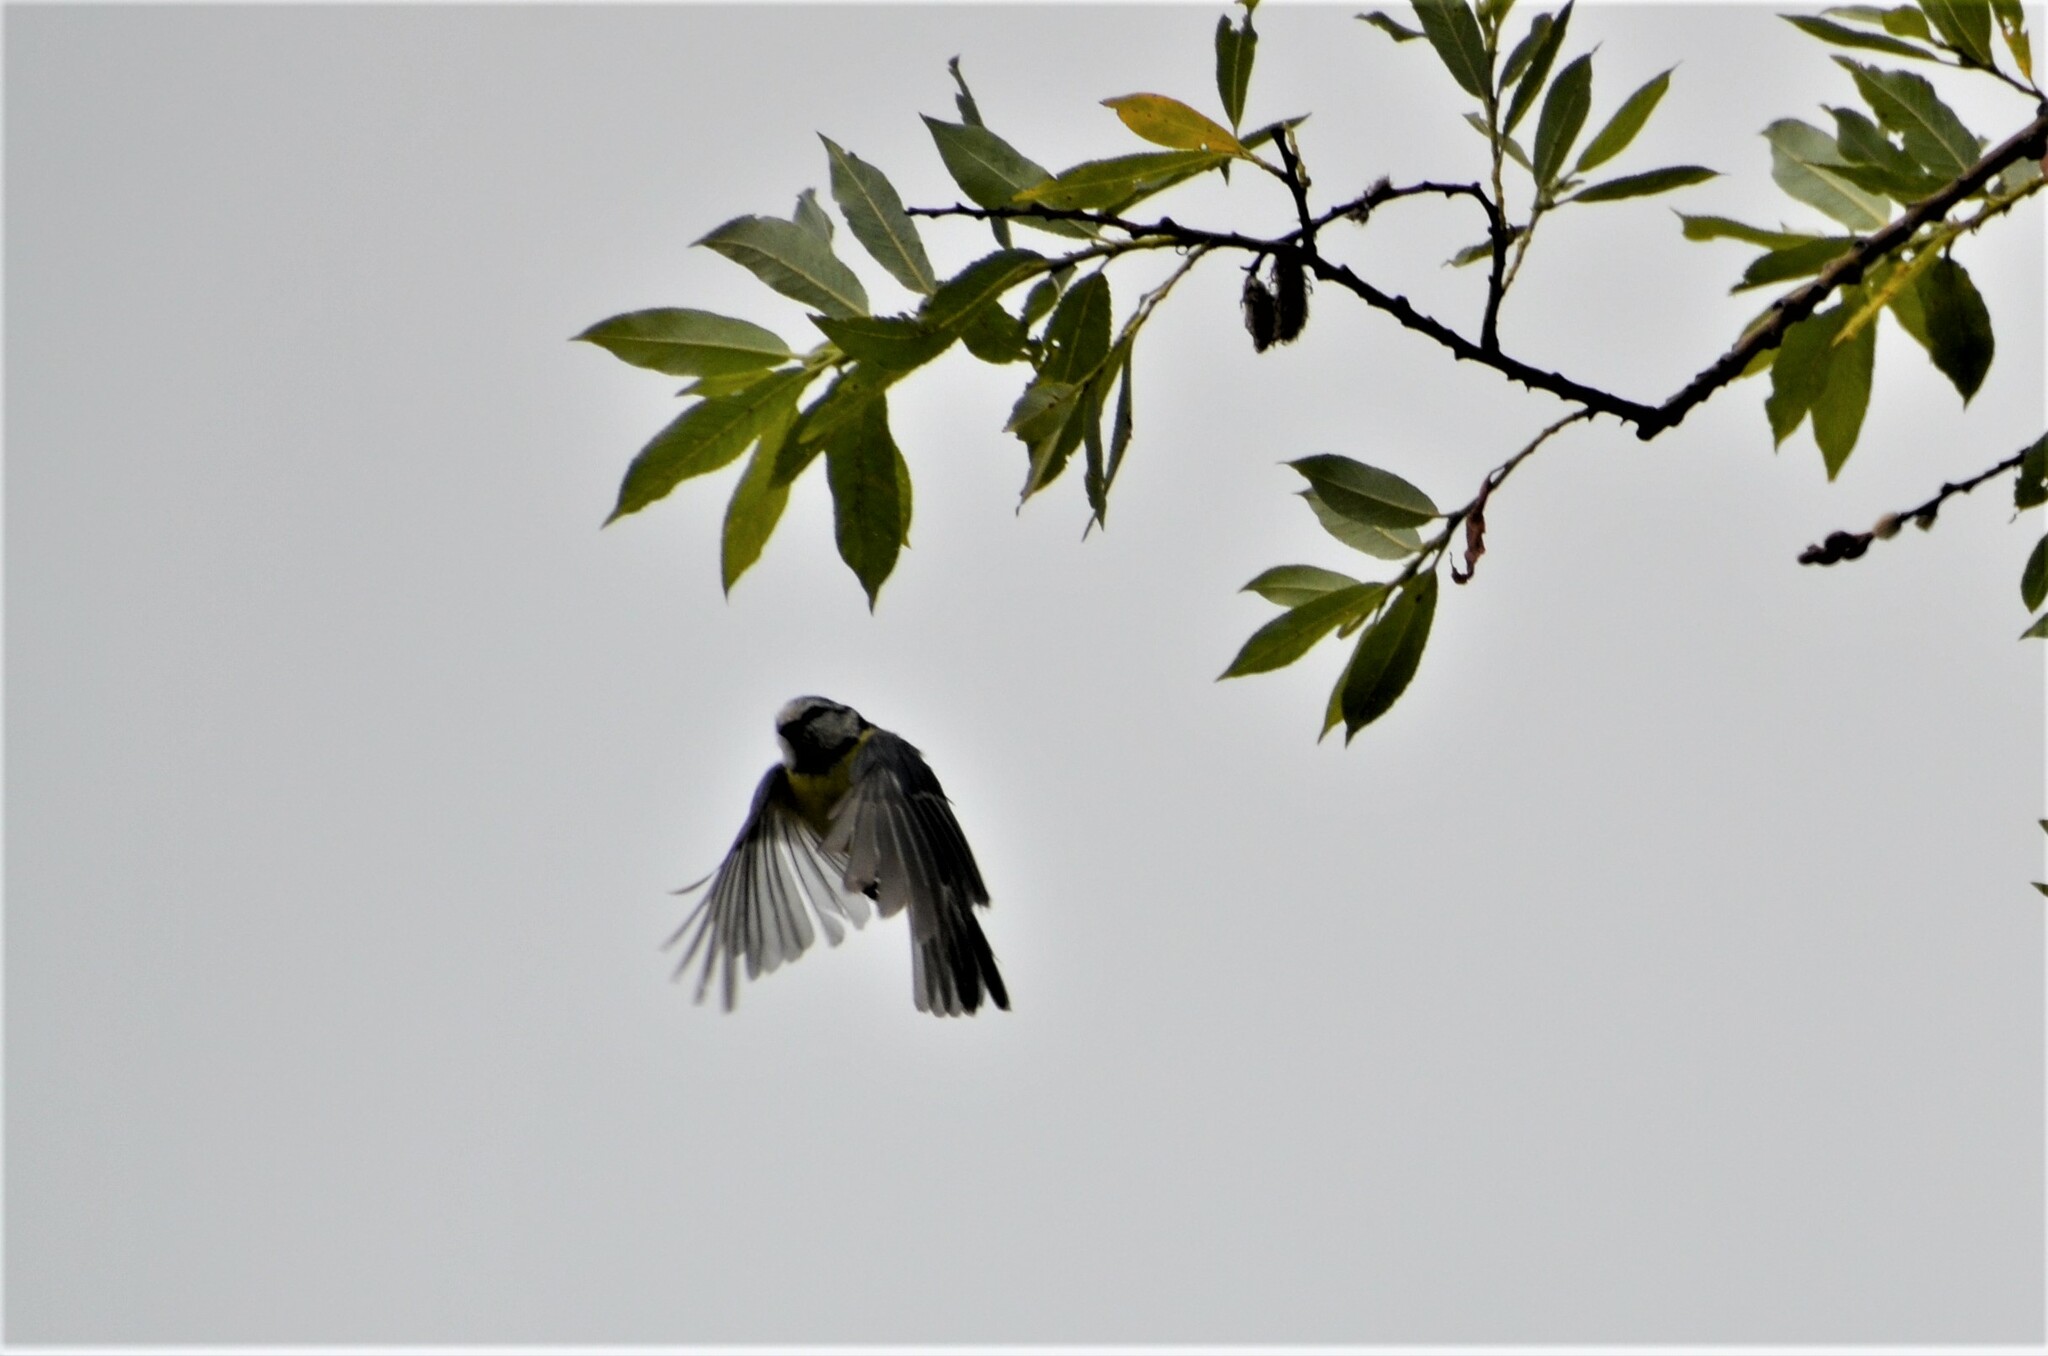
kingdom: Animalia
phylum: Chordata
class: Aves
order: Passeriformes
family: Paridae
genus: Cyanistes
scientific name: Cyanistes caeruleus
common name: Eurasian blue tit
